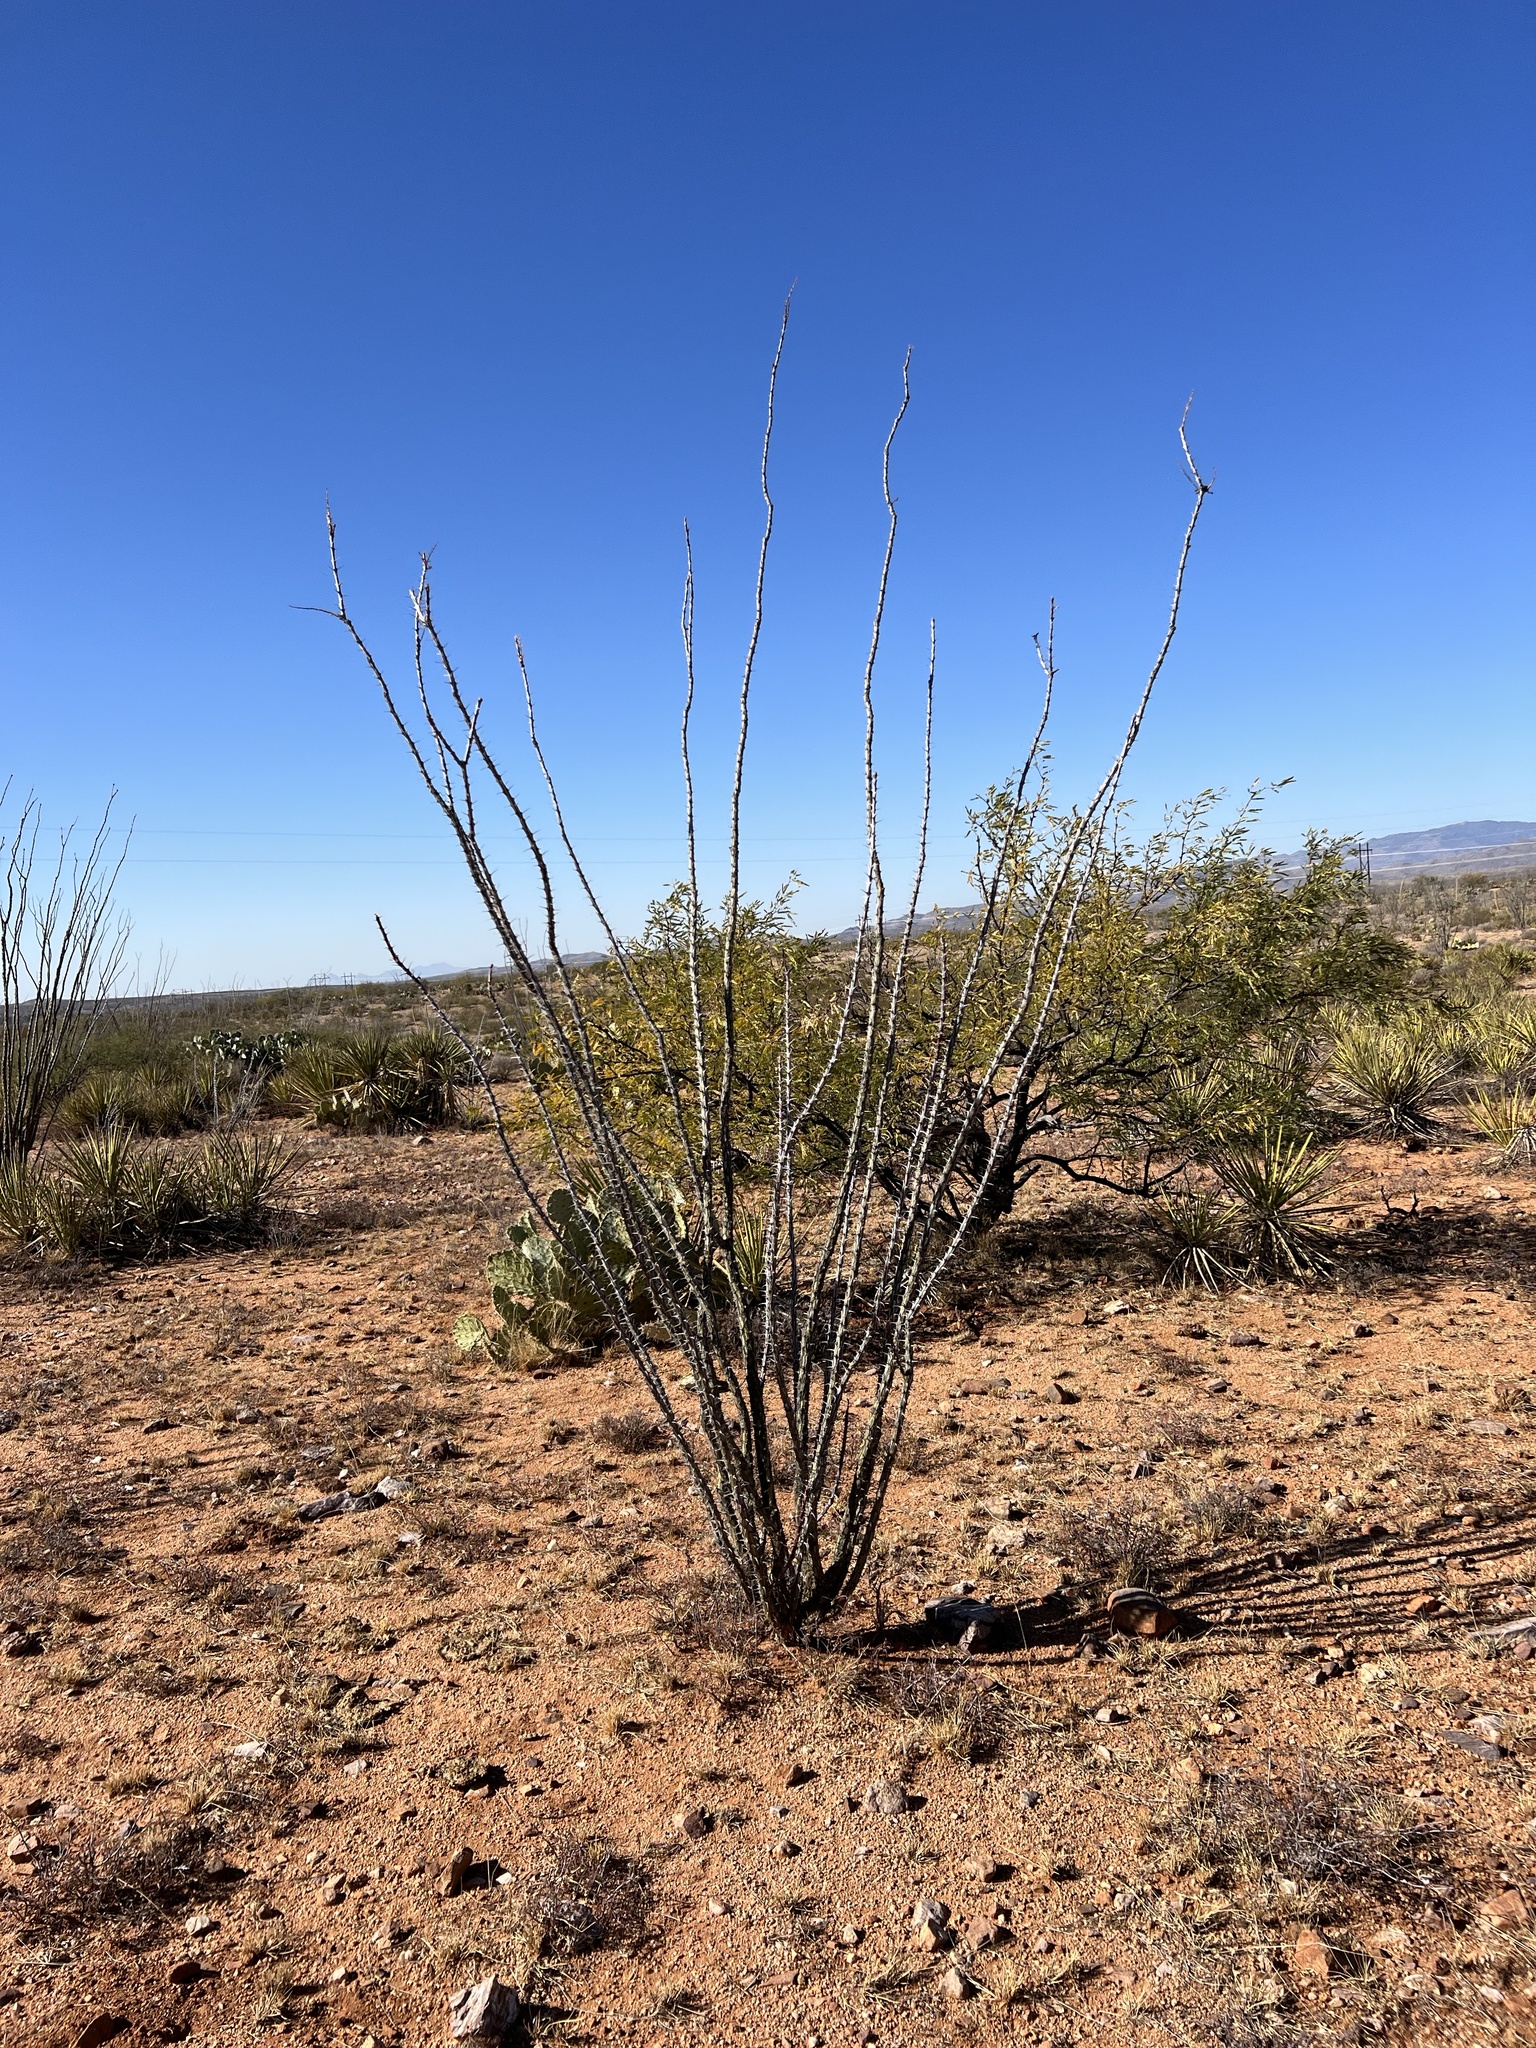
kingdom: Plantae
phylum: Tracheophyta
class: Magnoliopsida
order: Ericales
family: Fouquieriaceae
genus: Fouquieria
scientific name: Fouquieria splendens
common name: Vine-cactus
